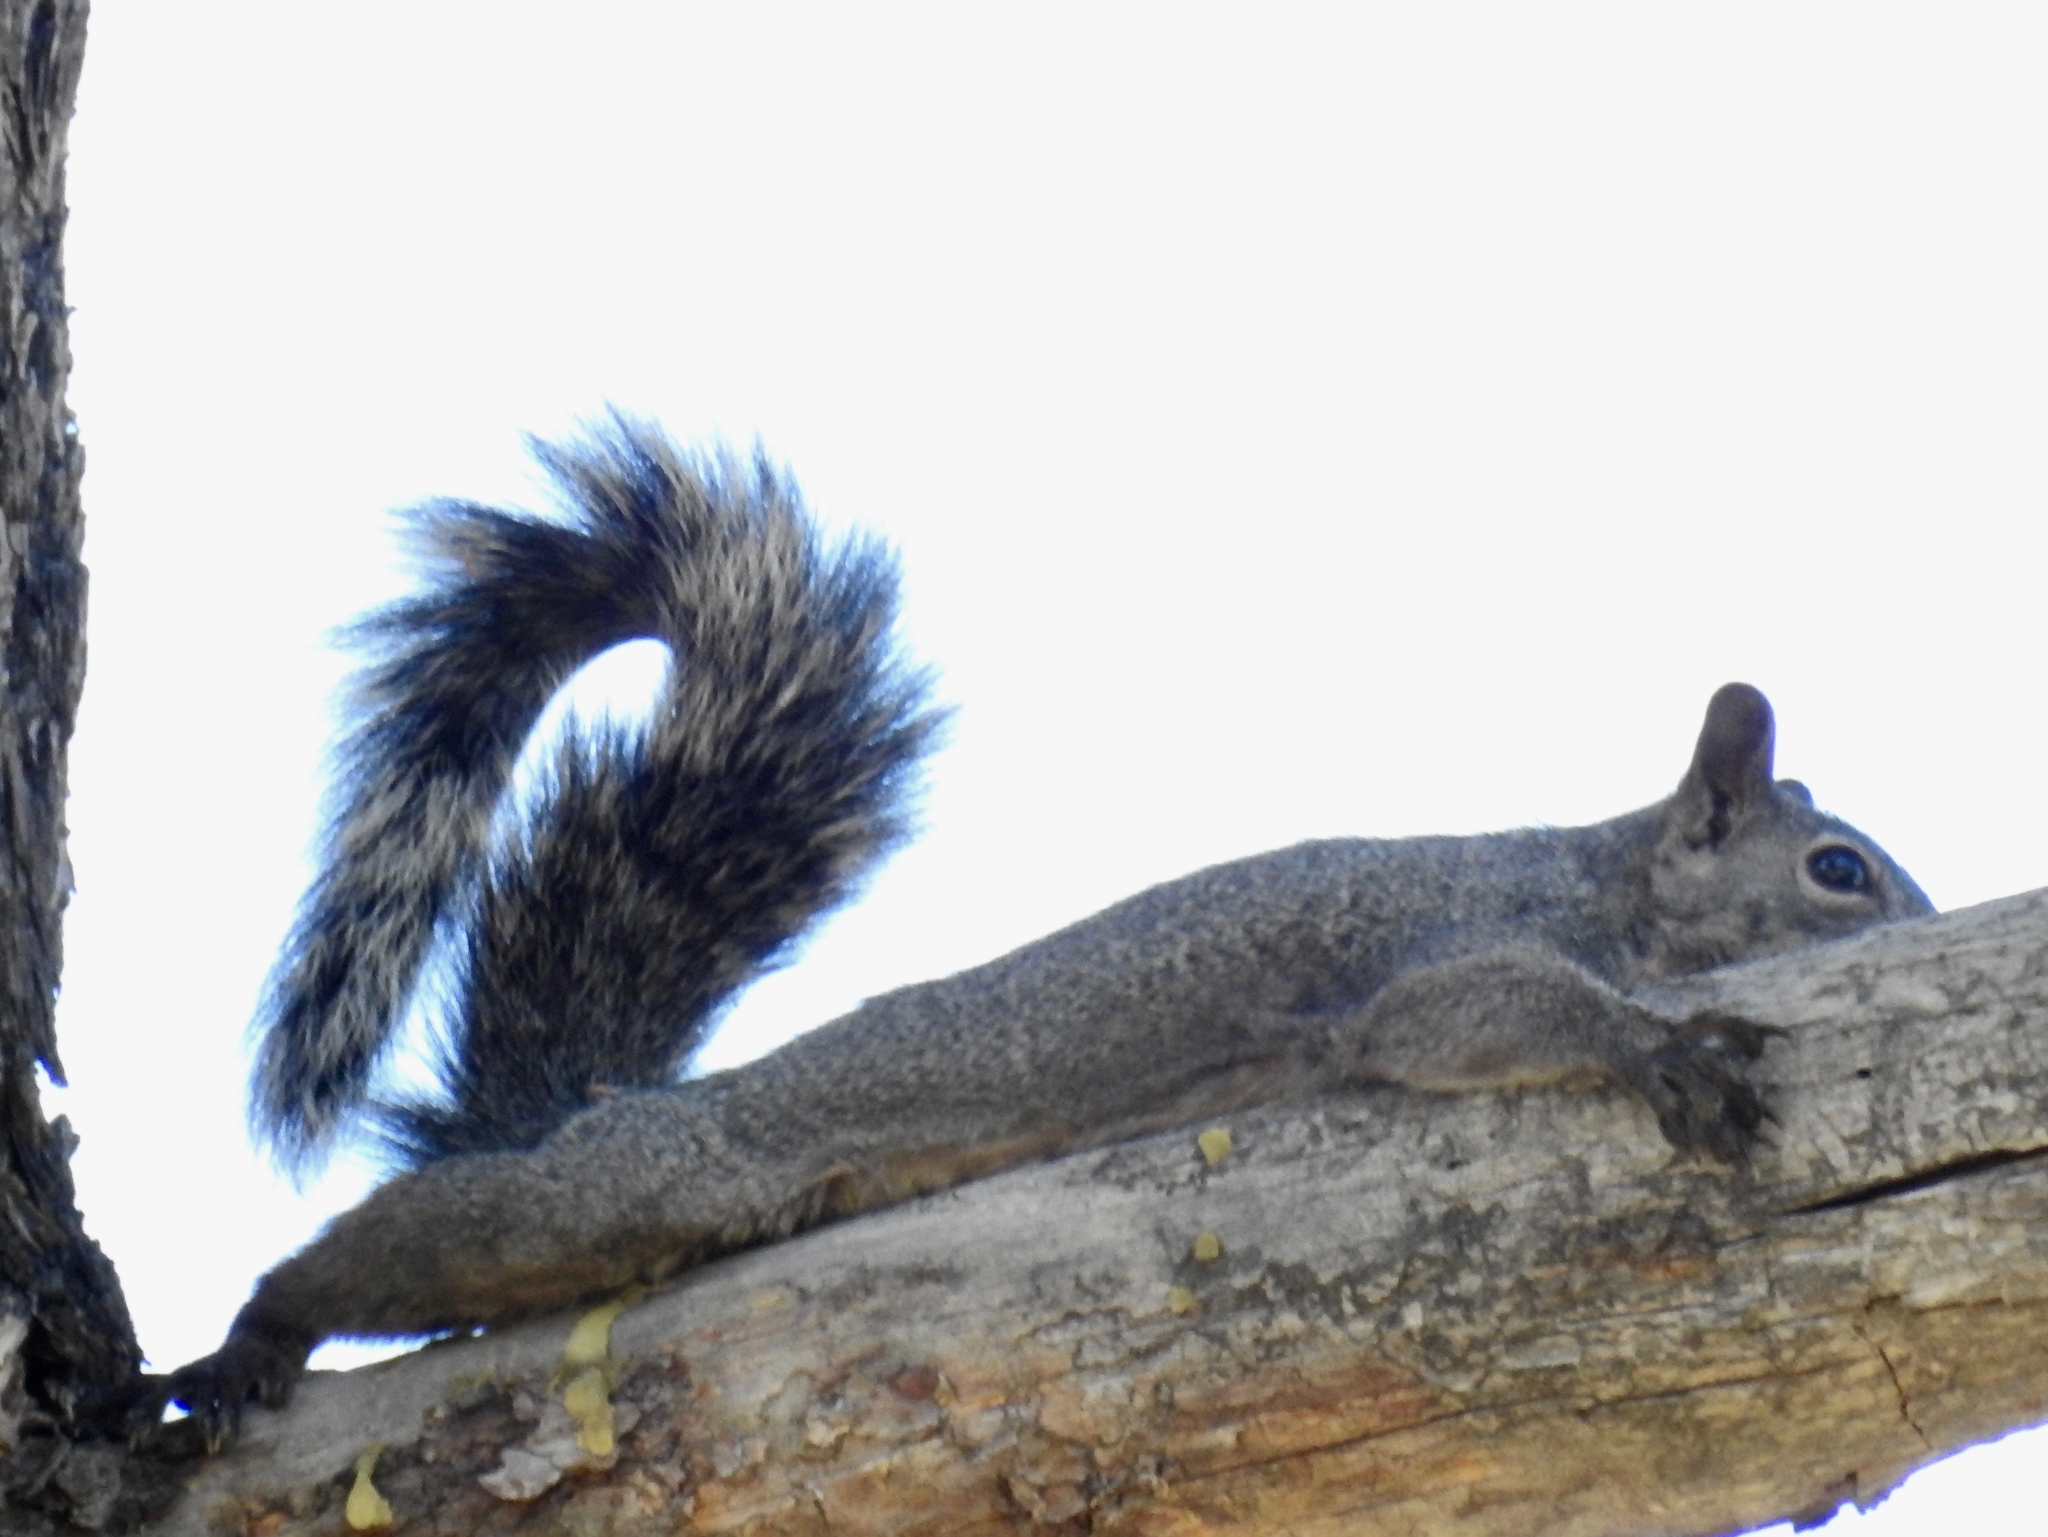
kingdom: Animalia
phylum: Chordata
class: Mammalia
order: Rodentia
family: Sciuridae
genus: Sciurus
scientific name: Sciurus griseus
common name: Western gray squirrel
